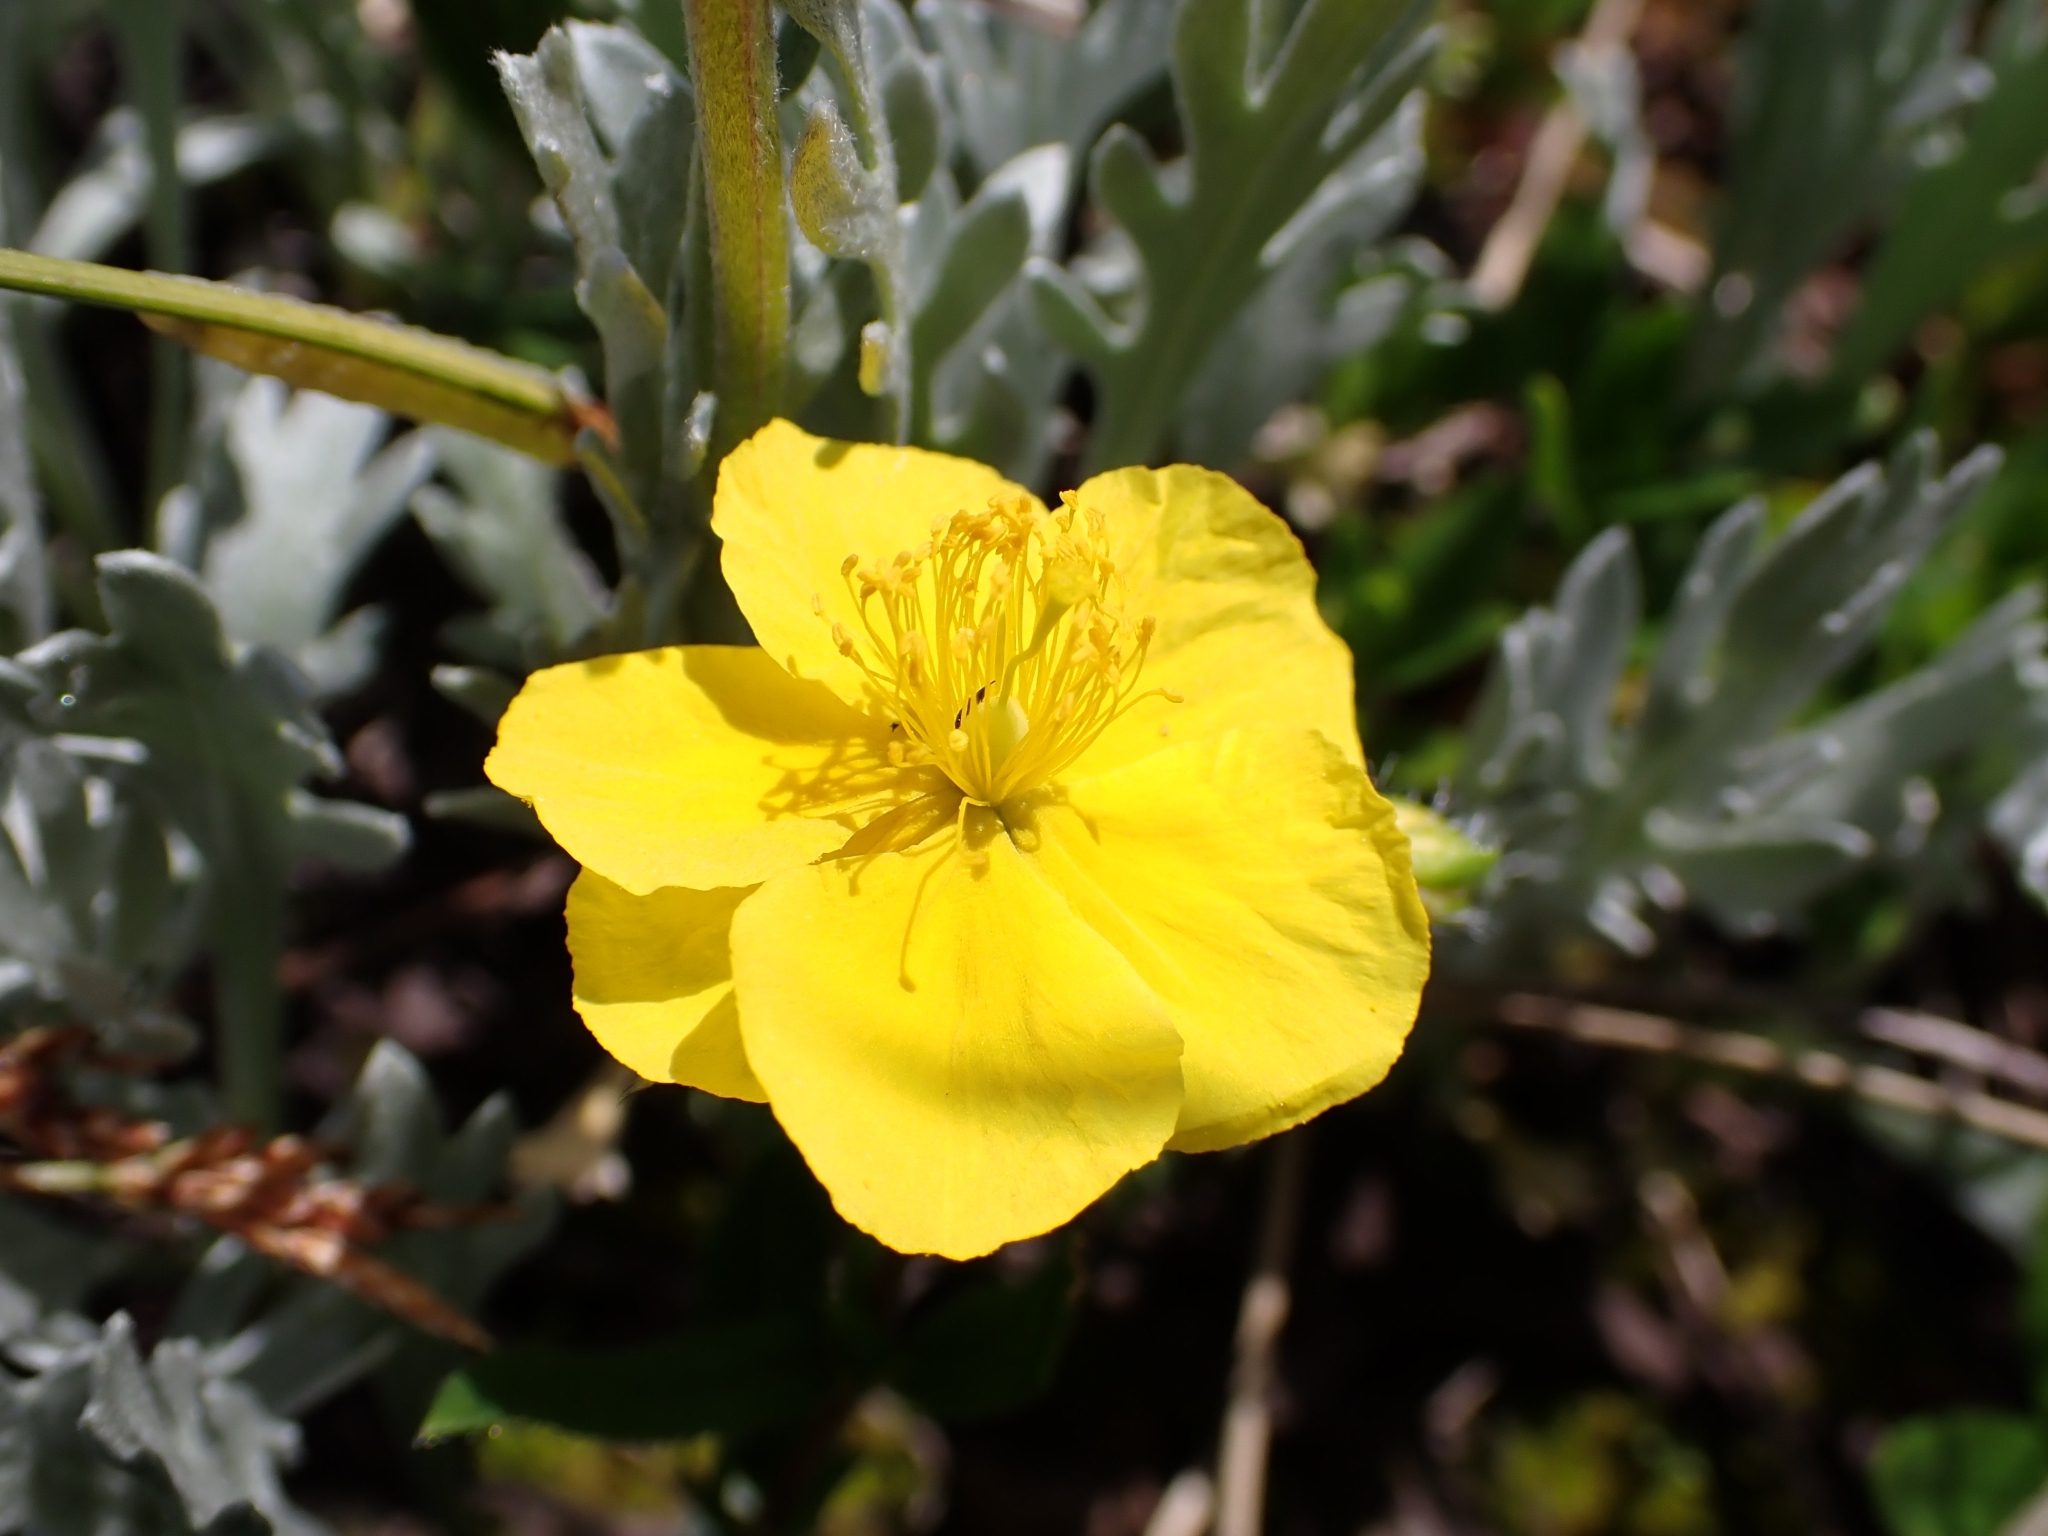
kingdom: Plantae
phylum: Tracheophyta
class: Magnoliopsida
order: Malvales
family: Cistaceae
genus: Helianthemum
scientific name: Helianthemum nummularium
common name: Common rock-rose
